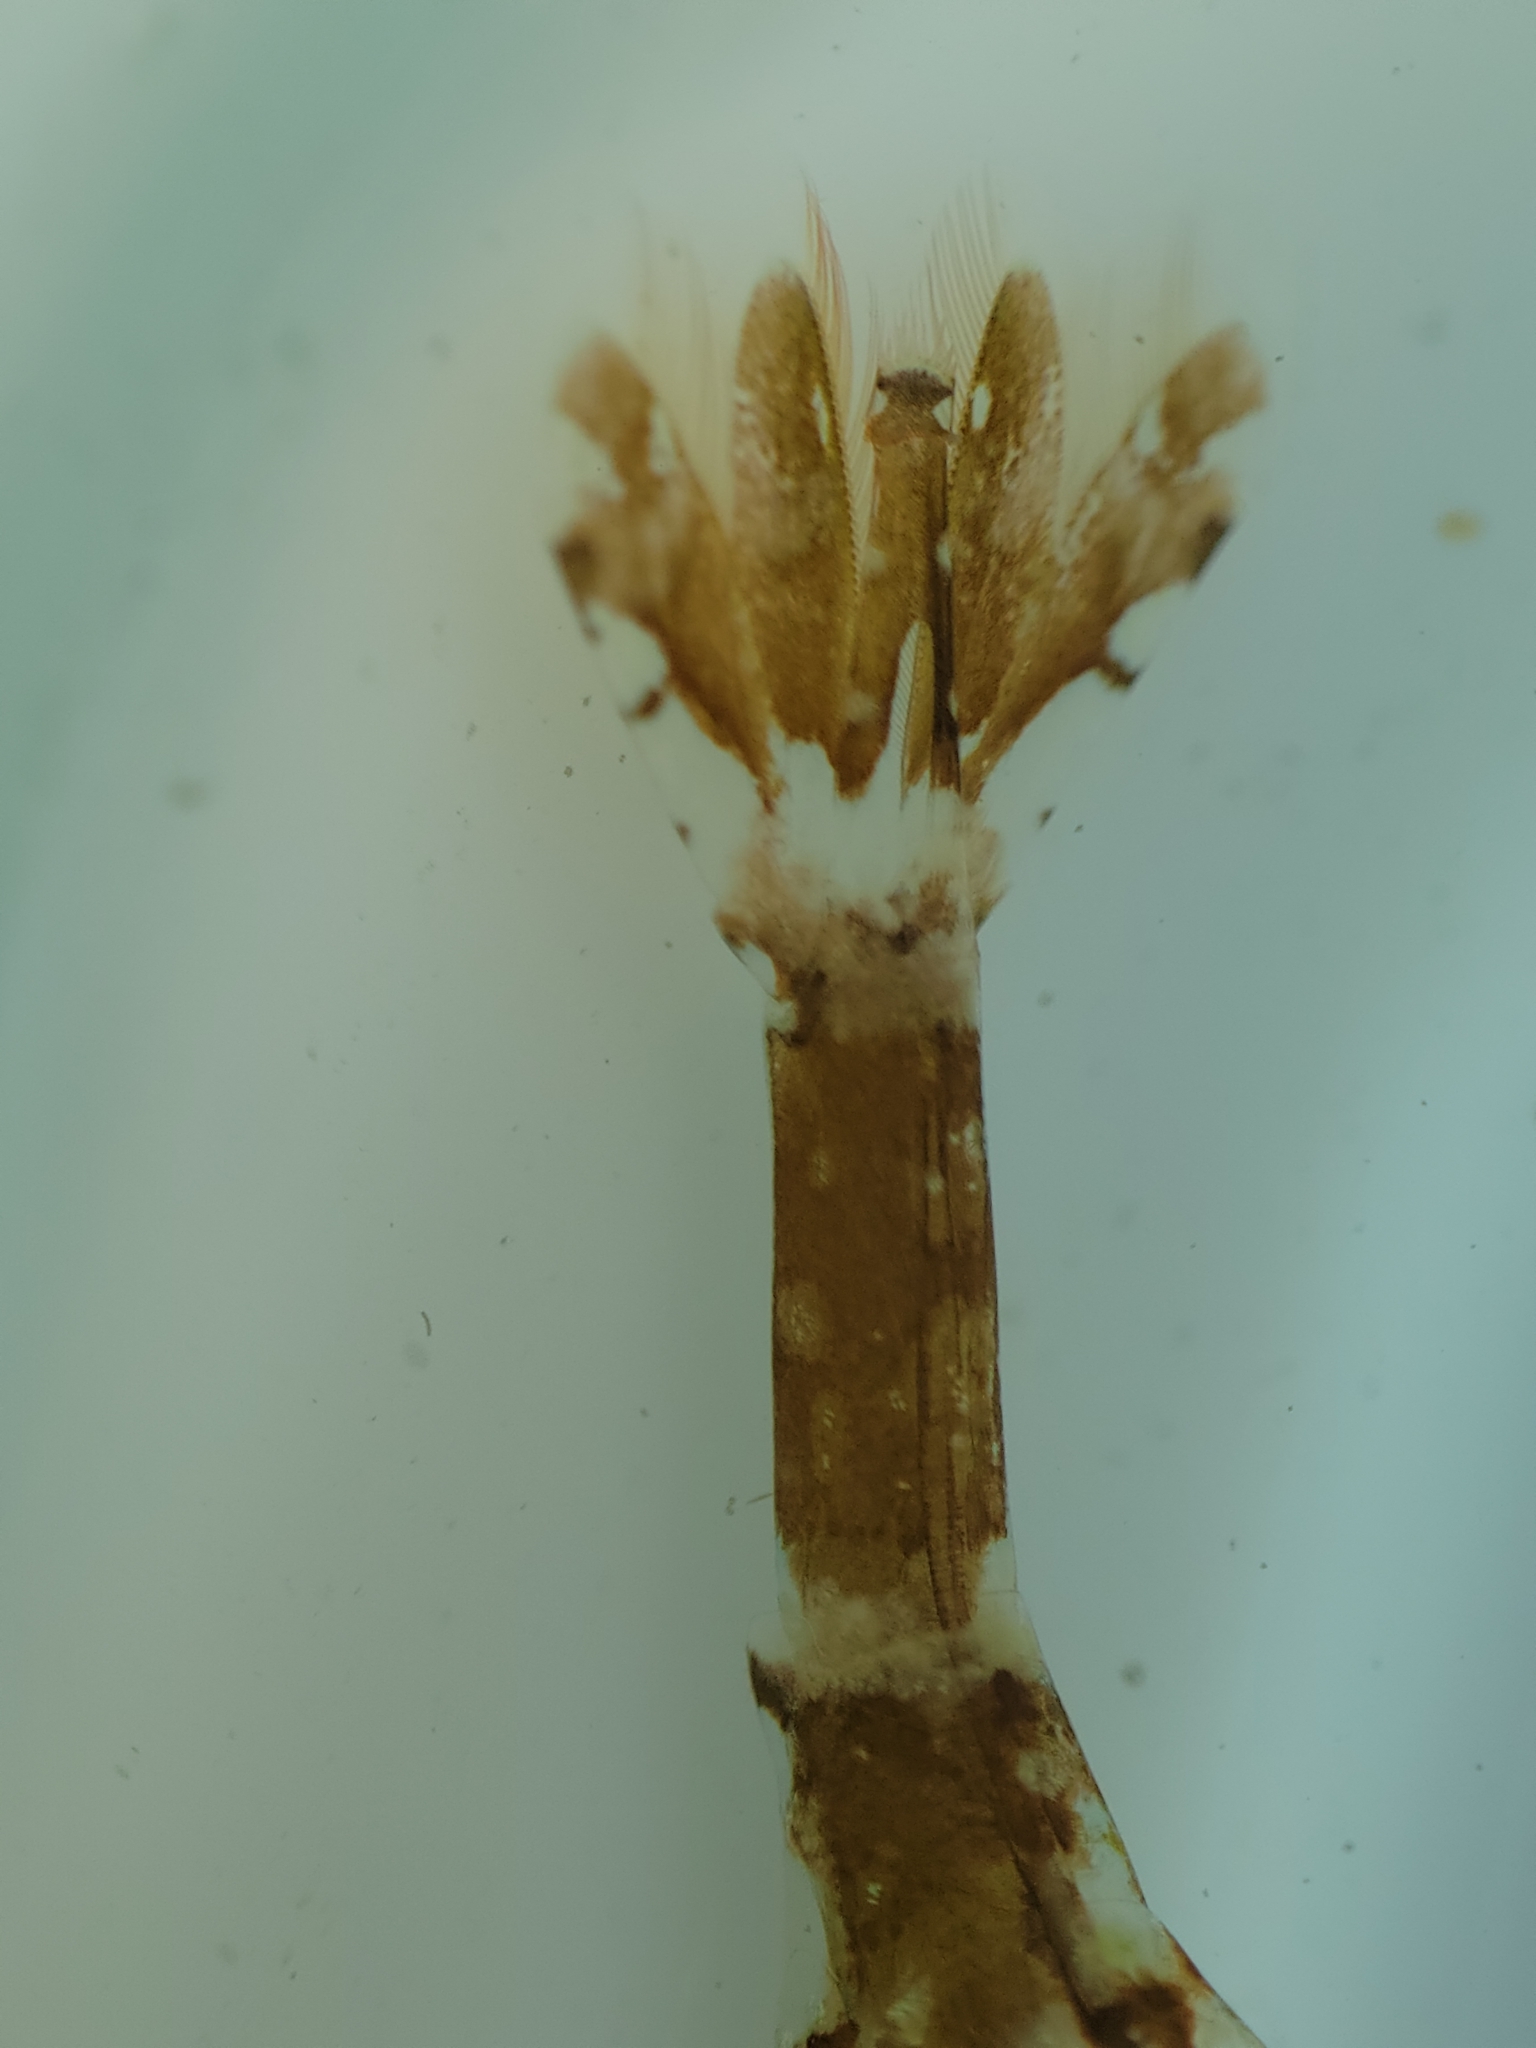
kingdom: Animalia
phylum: Arthropoda
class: Malacostraca
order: Decapoda
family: Hippolytidae
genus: Hippolyte
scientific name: Hippolyte clarki
